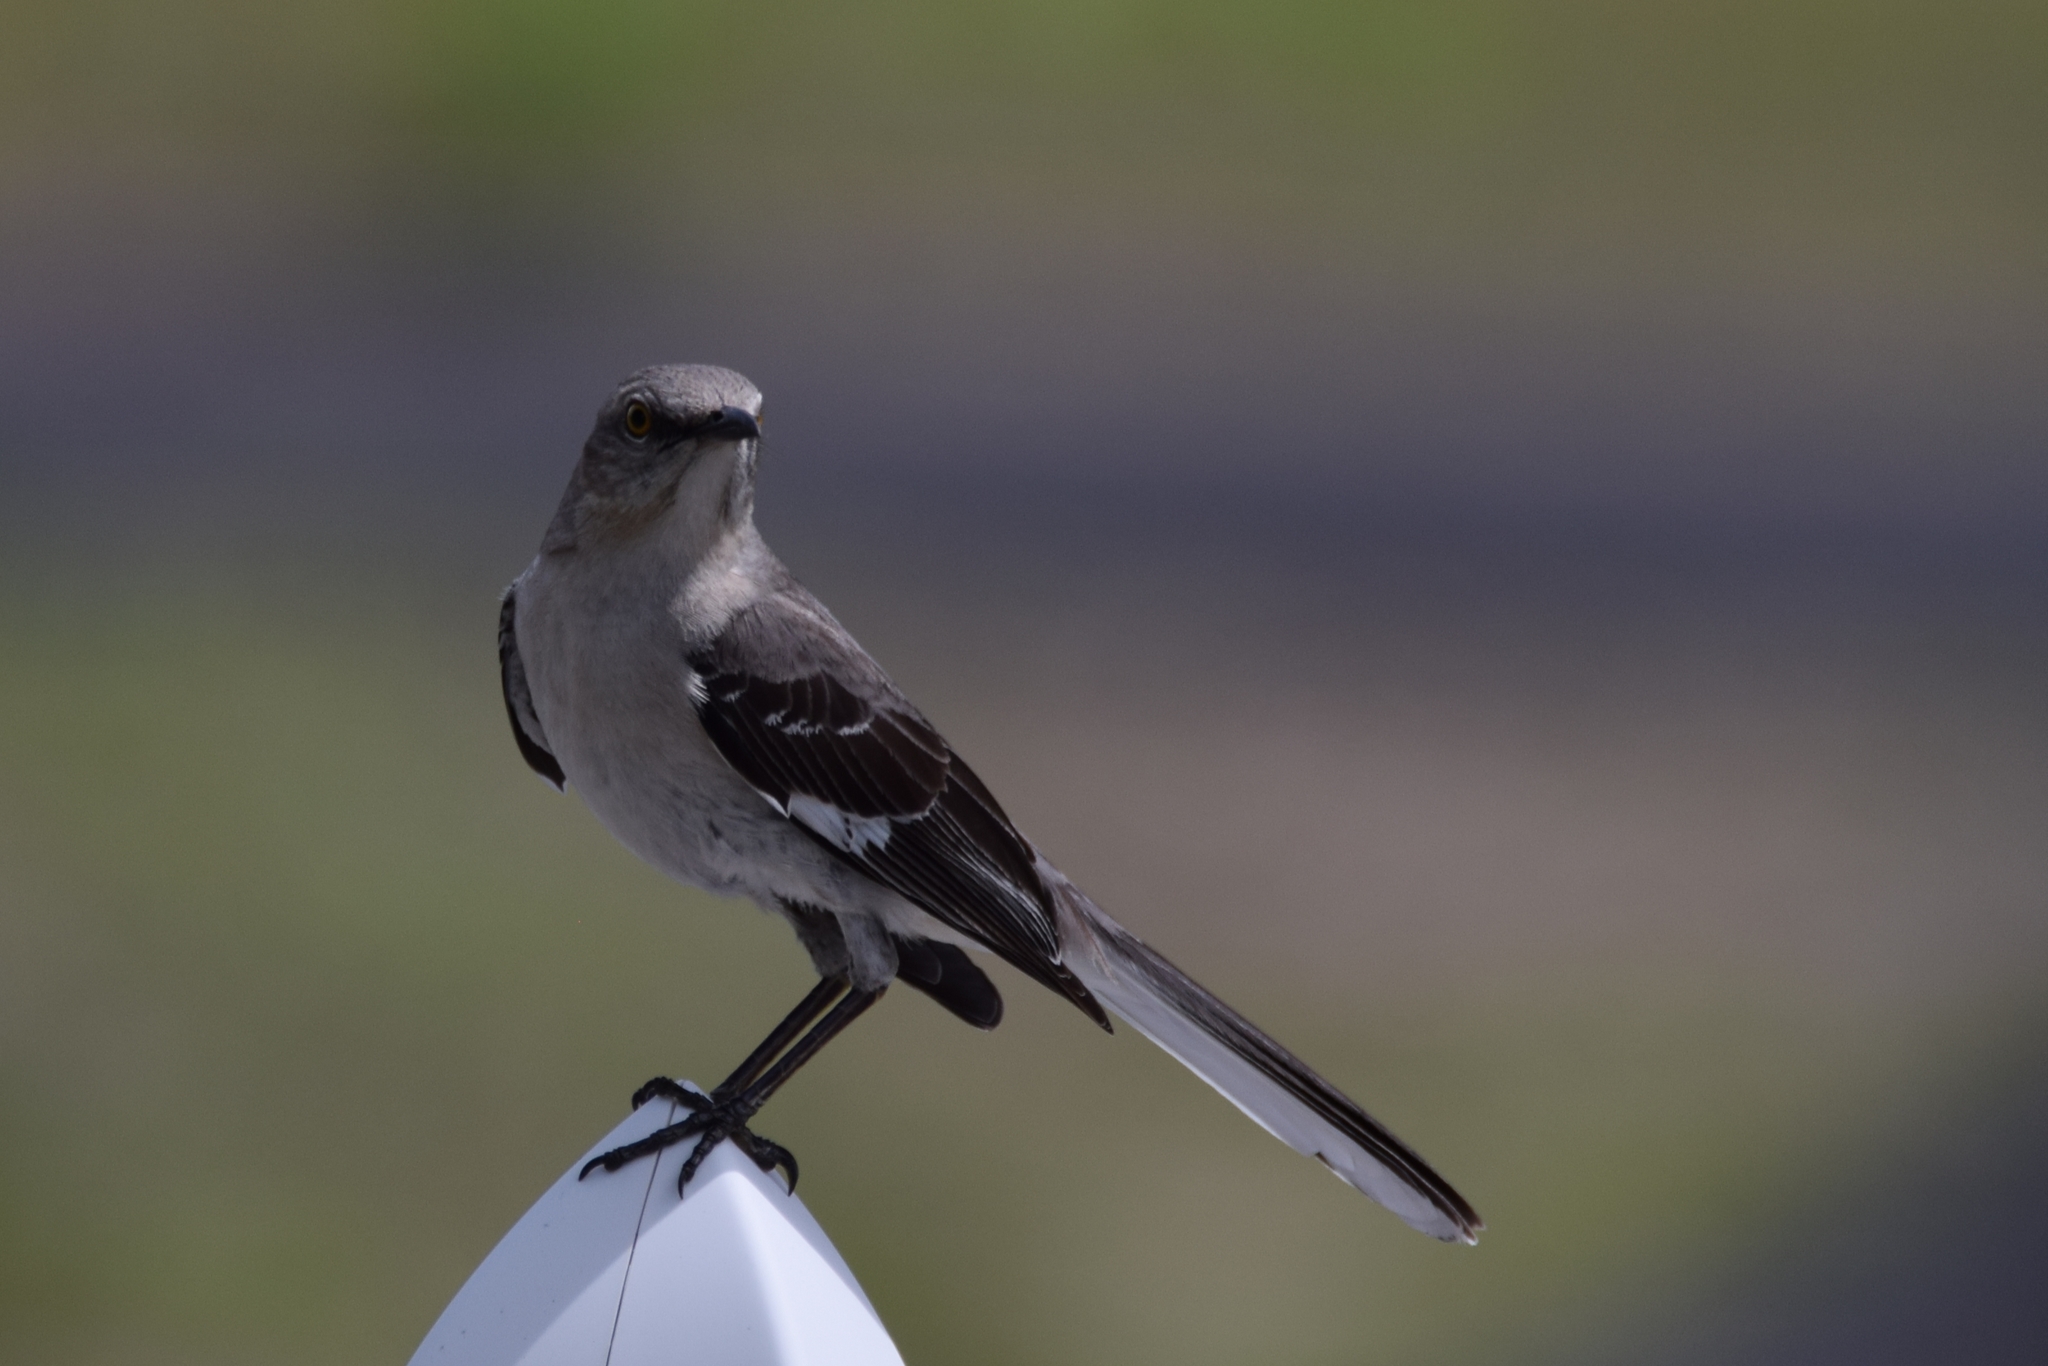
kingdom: Animalia
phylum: Chordata
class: Aves
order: Passeriformes
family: Mimidae
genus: Mimus
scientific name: Mimus polyglottos
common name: Northern mockingbird
